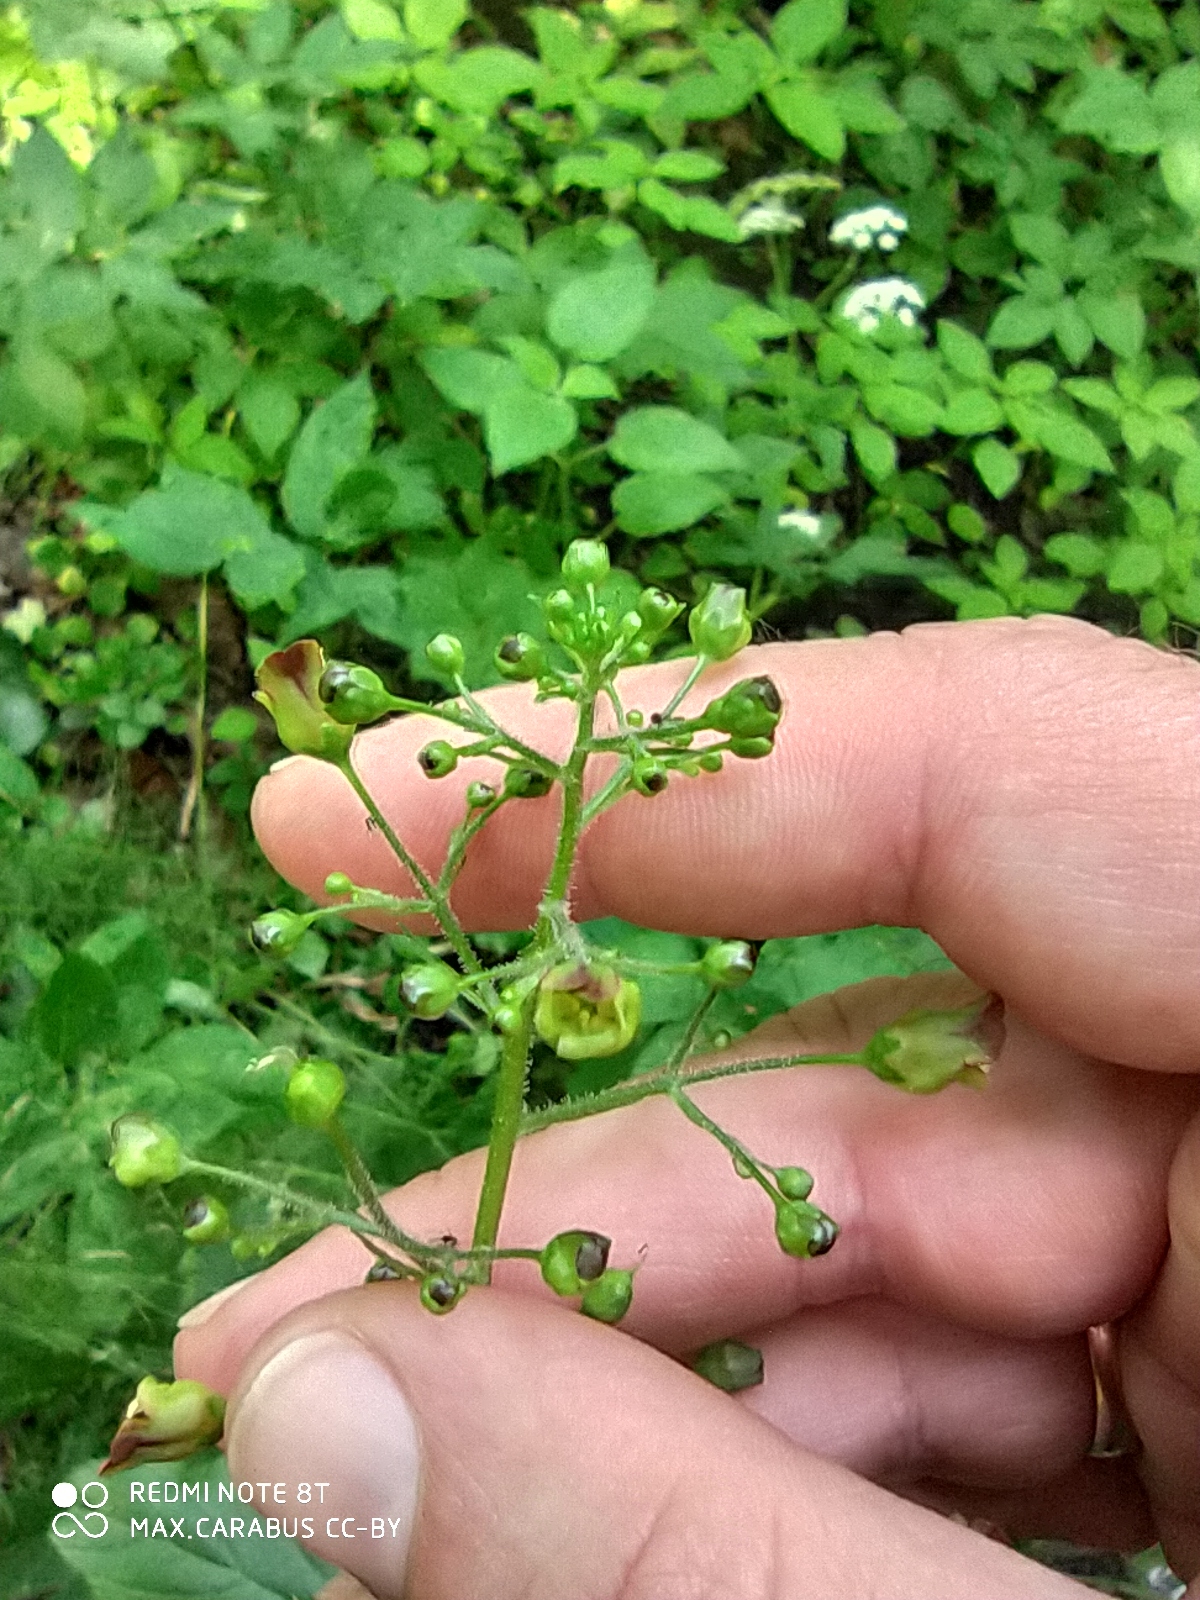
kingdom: Plantae
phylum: Tracheophyta
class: Magnoliopsida
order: Lamiales
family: Scrophulariaceae
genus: Scrophularia
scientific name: Scrophularia nodosa
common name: Common figwort
